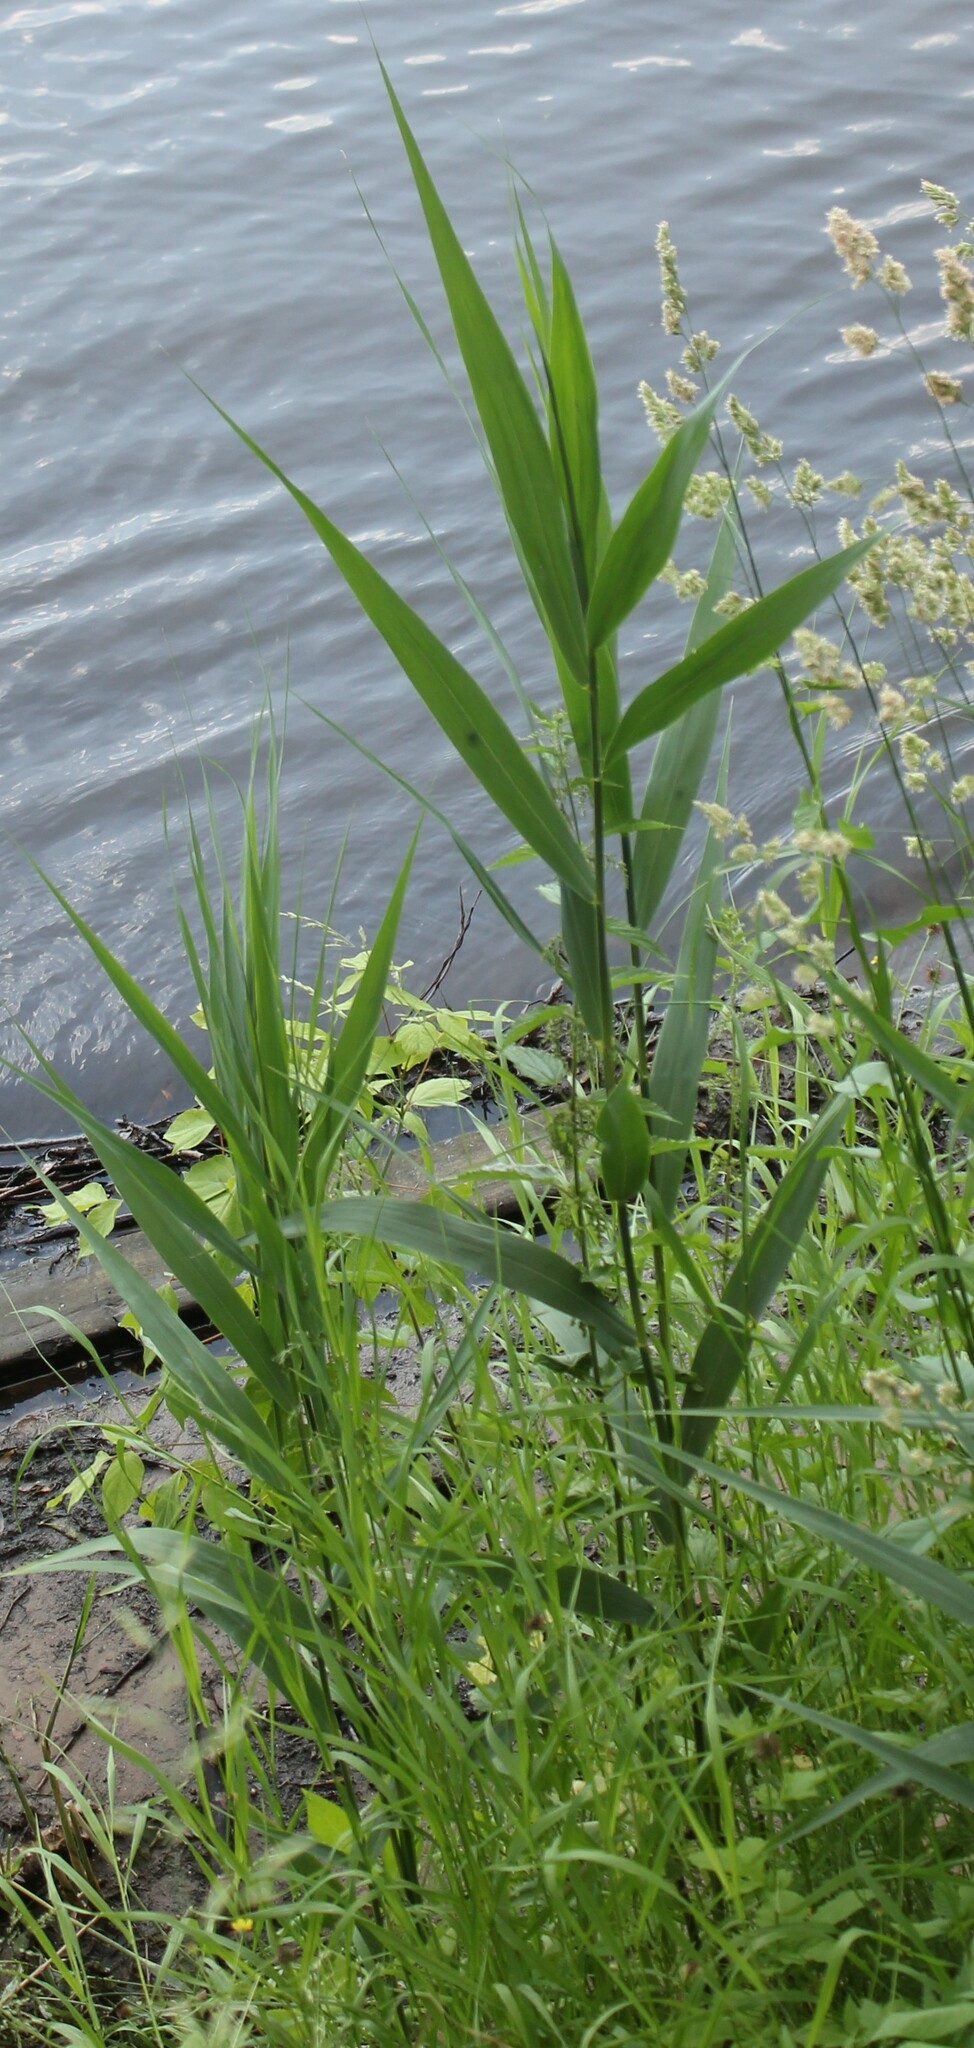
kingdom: Plantae
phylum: Tracheophyta
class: Liliopsida
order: Poales
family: Poaceae
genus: Phragmites
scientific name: Phragmites australis
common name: Common reed
